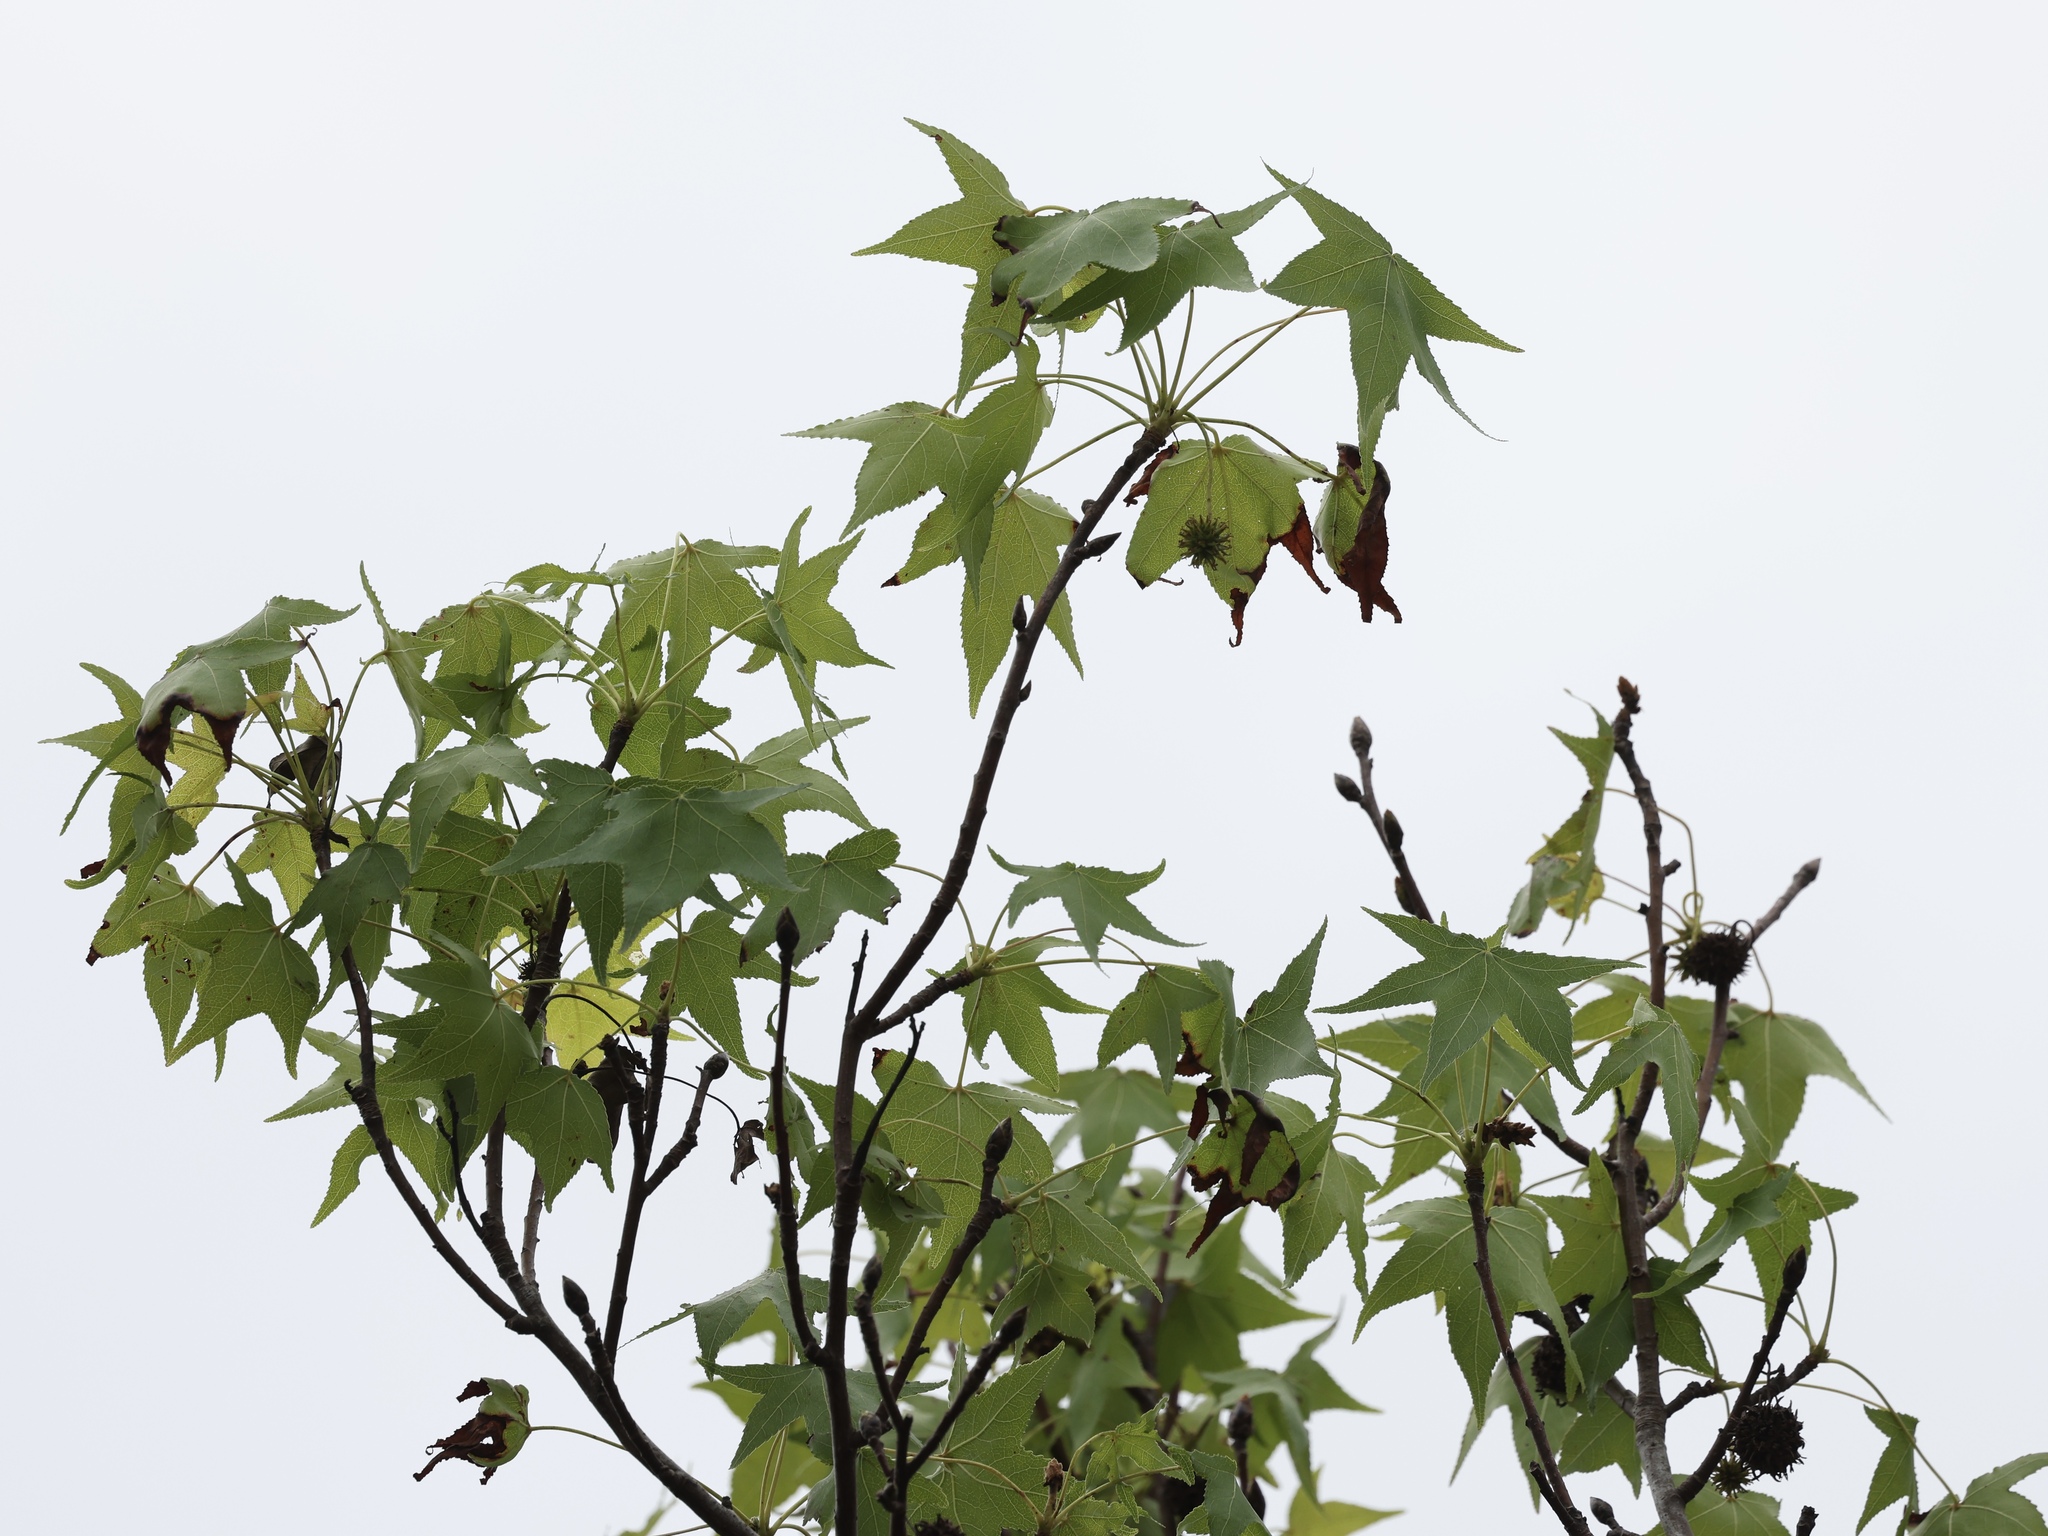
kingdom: Plantae
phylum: Tracheophyta
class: Magnoliopsida
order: Saxifragales
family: Altingiaceae
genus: Liquidambar
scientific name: Liquidambar styraciflua
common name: Sweet gum
